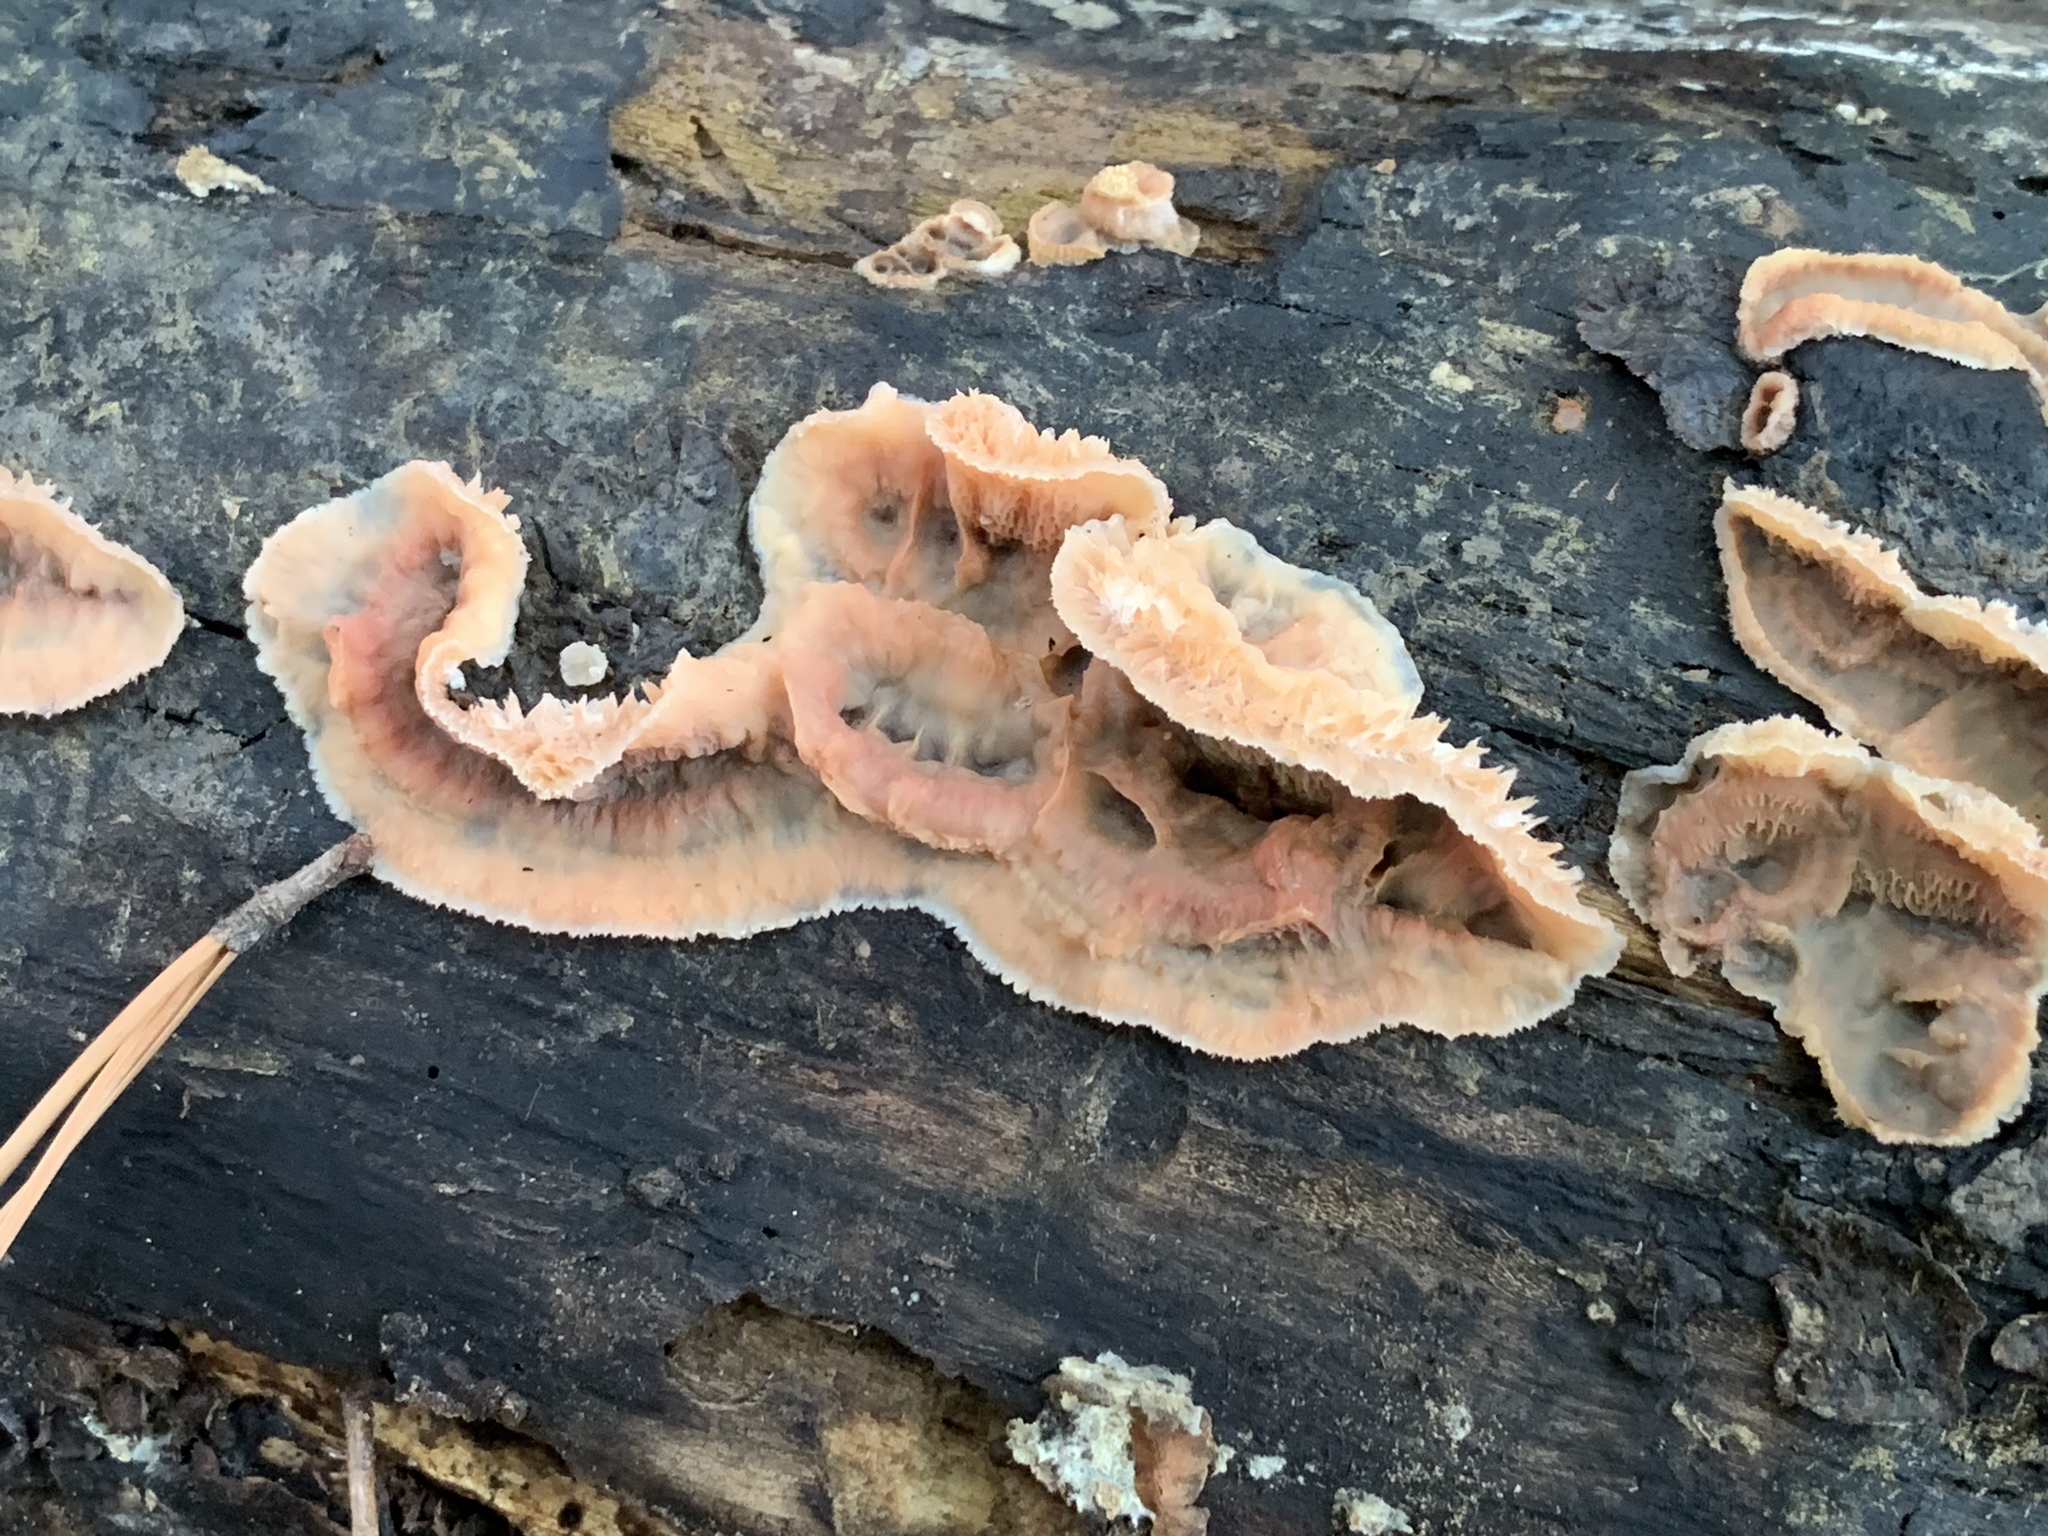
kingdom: Fungi
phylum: Basidiomycota
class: Agaricomycetes
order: Polyporales
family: Meruliaceae
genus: Phlebia
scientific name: Phlebia tremellosa
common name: Jelly rot
